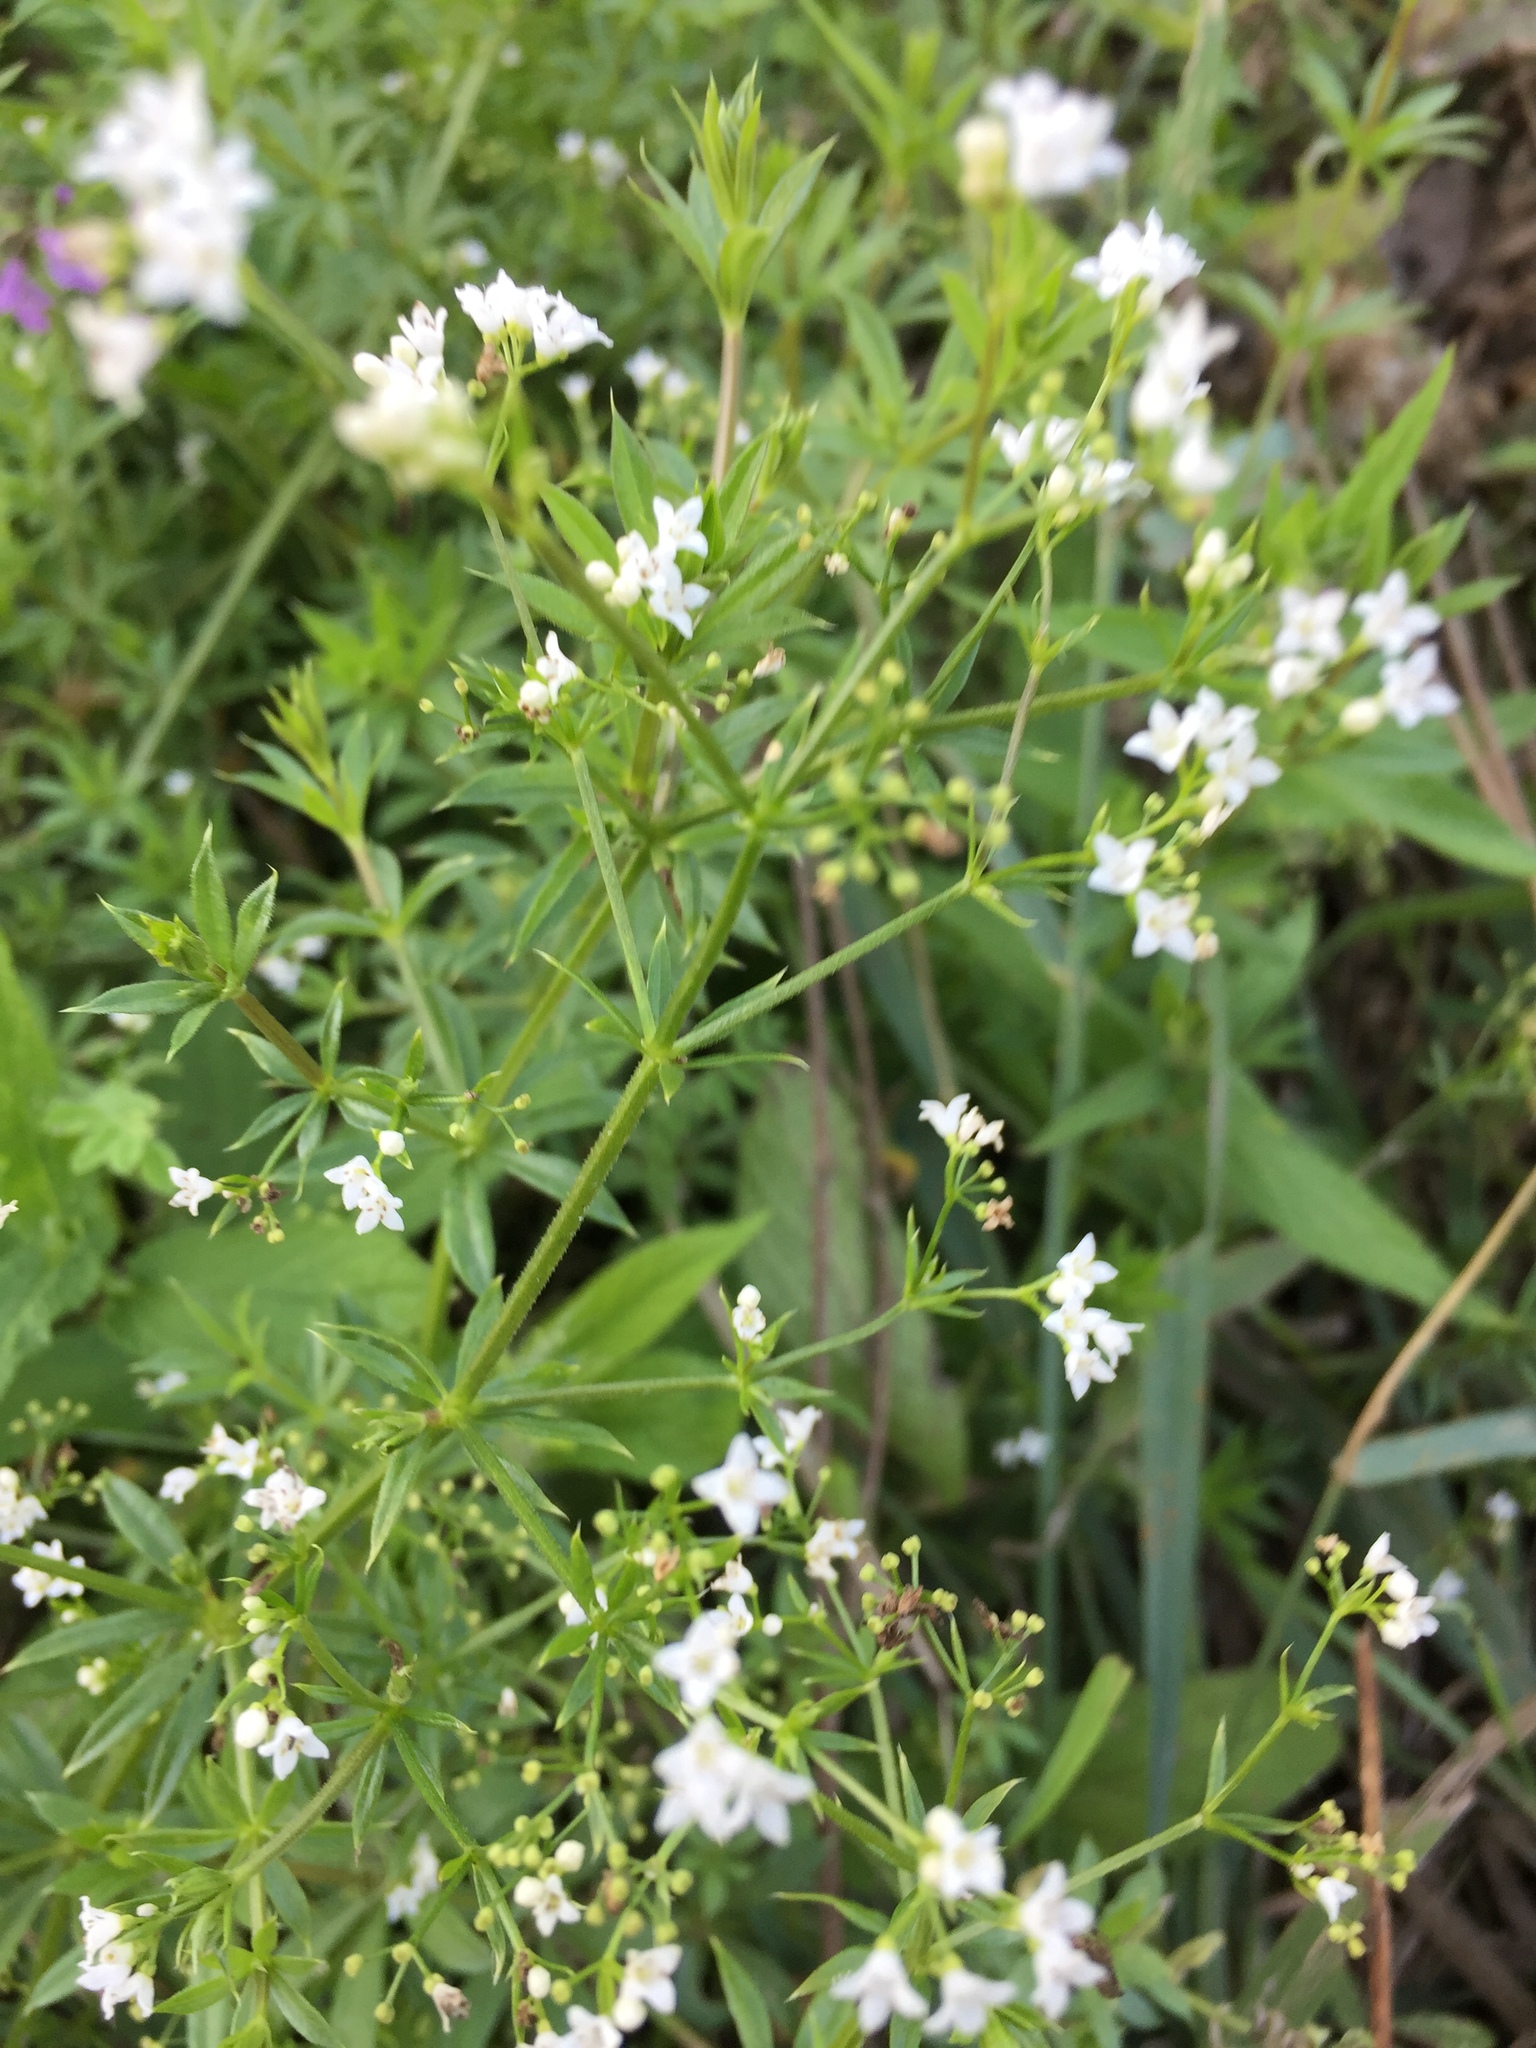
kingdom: Plantae
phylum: Tracheophyta
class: Magnoliopsida
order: Gentianales
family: Rubiaceae
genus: Galium
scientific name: Galium rivale
